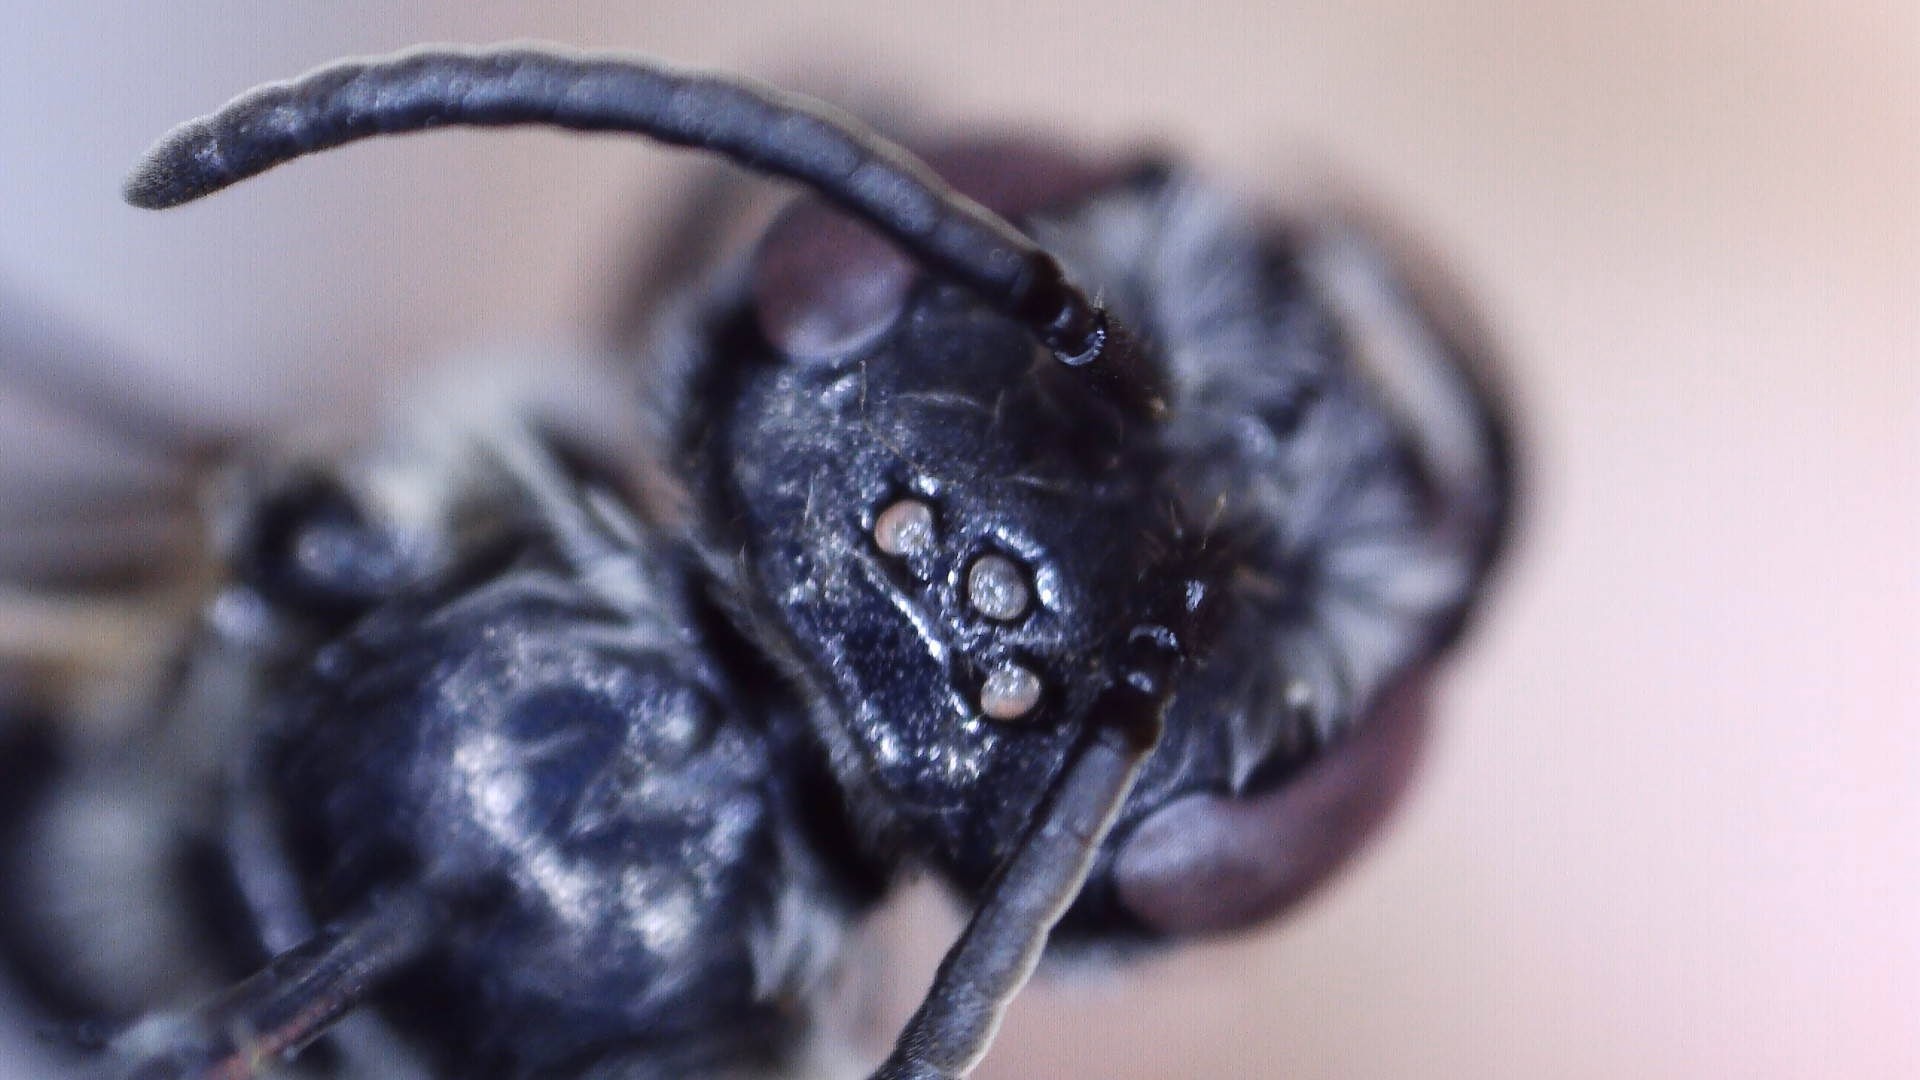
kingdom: Animalia
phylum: Arthropoda
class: Insecta
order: Hymenoptera
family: Halictidae
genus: Lasioglossum
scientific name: Lasioglossum coriaceum
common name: Leathery sweat bee
